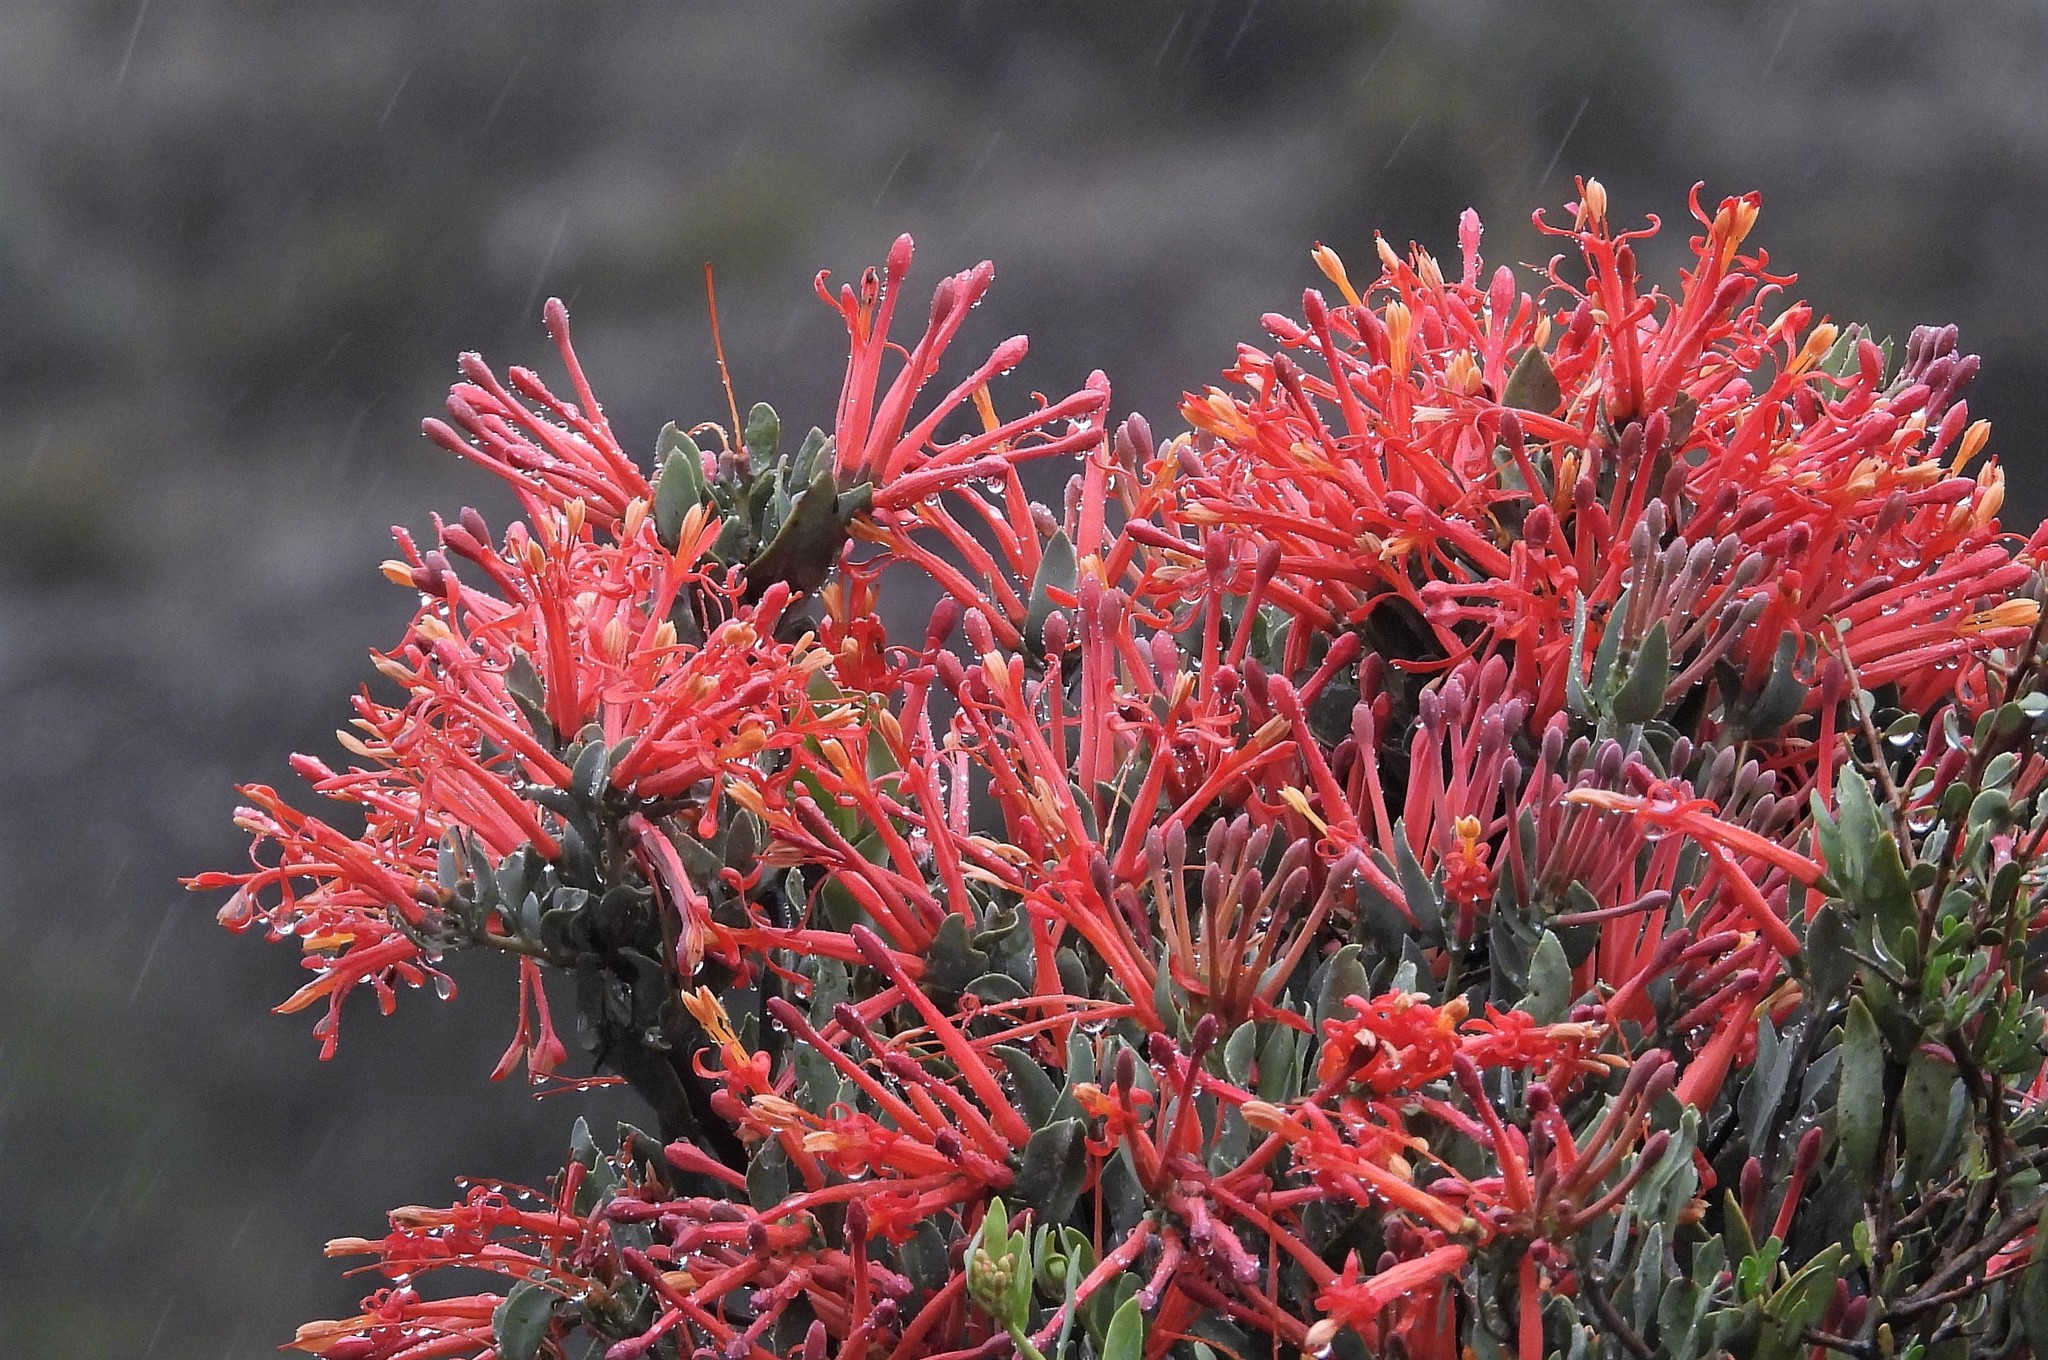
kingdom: Plantae
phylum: Tracheophyta
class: Magnoliopsida
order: Santalales
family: Loranthaceae
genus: Tristerix
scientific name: Tristerix verticillatus
